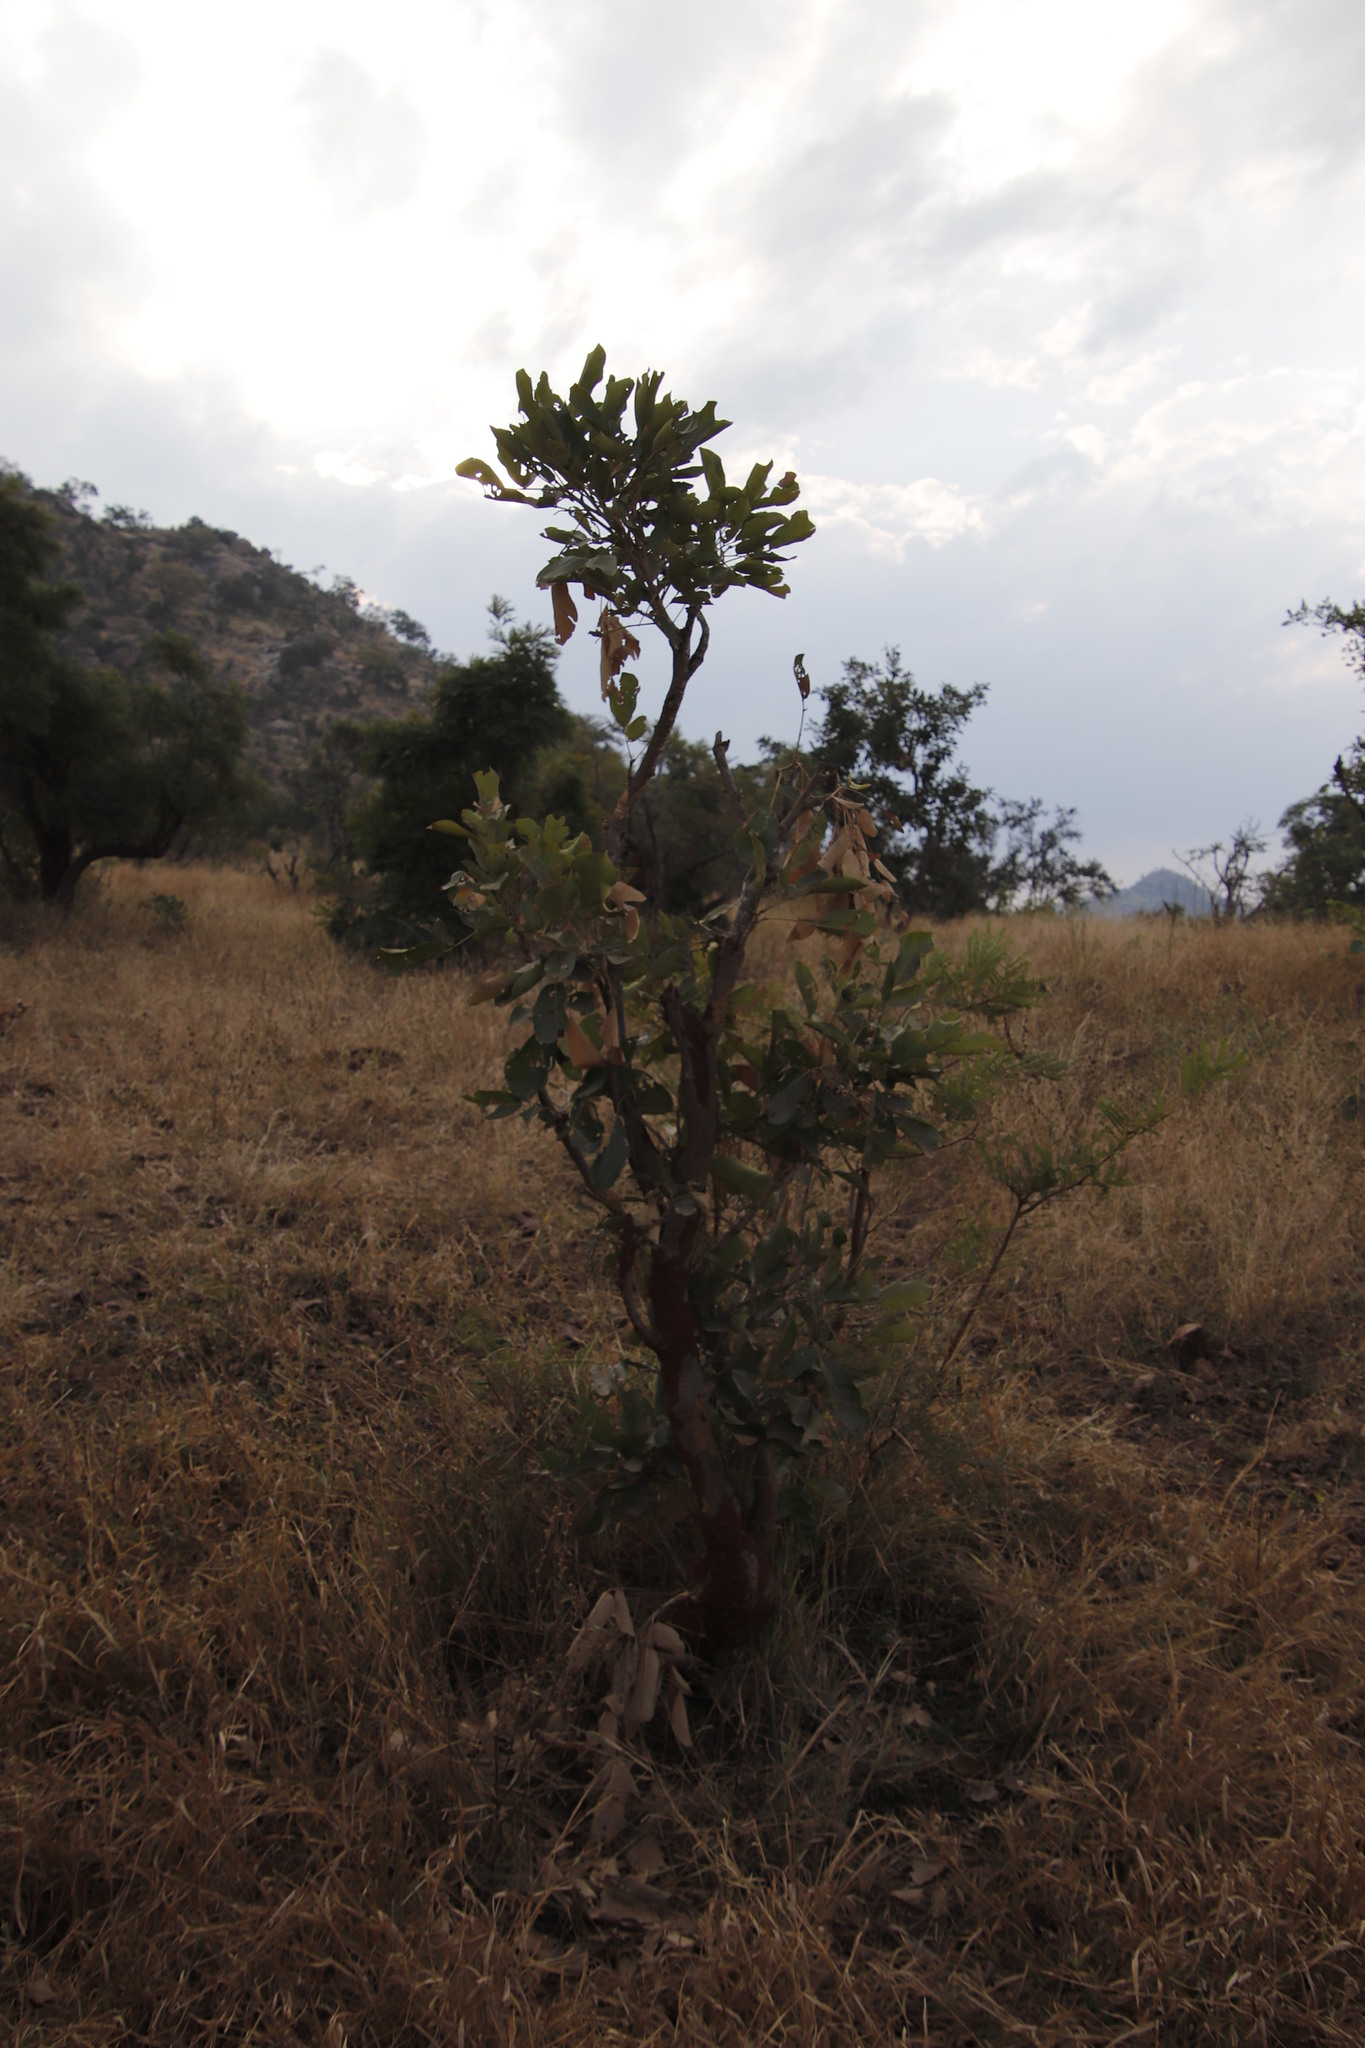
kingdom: Plantae
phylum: Tracheophyta
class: Magnoliopsida
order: Fabales
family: Fabaceae
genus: Philenoptera
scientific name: Philenoptera violacea
